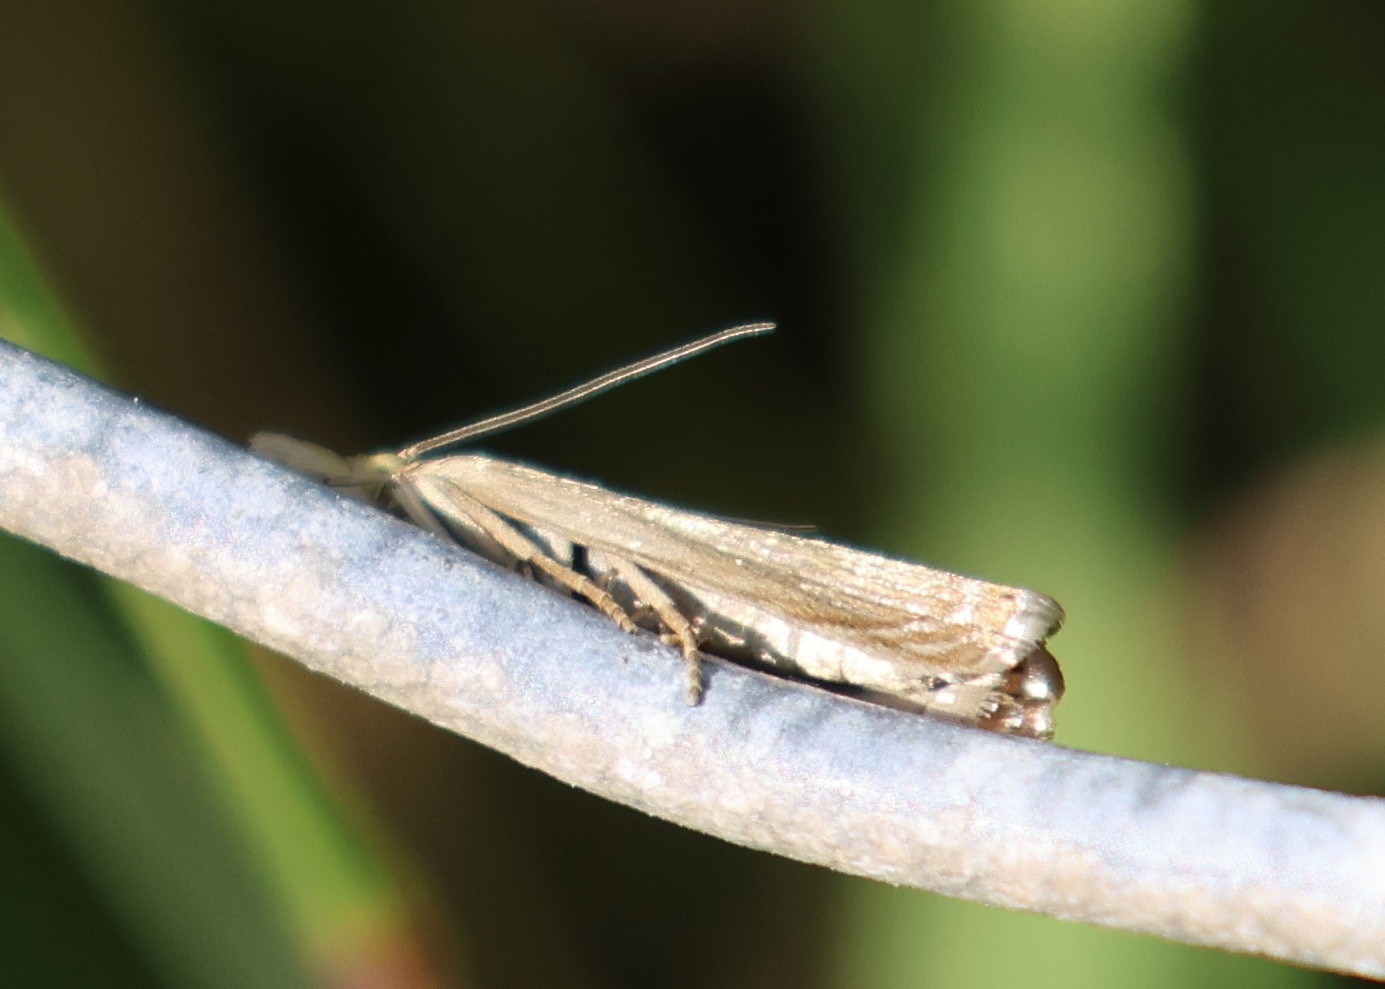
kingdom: Animalia
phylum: Arthropoda
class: Insecta
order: Lepidoptera
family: Crambidae
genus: Chrysoteuchia
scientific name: Chrysoteuchia culmella
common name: Garden grass-veneer
